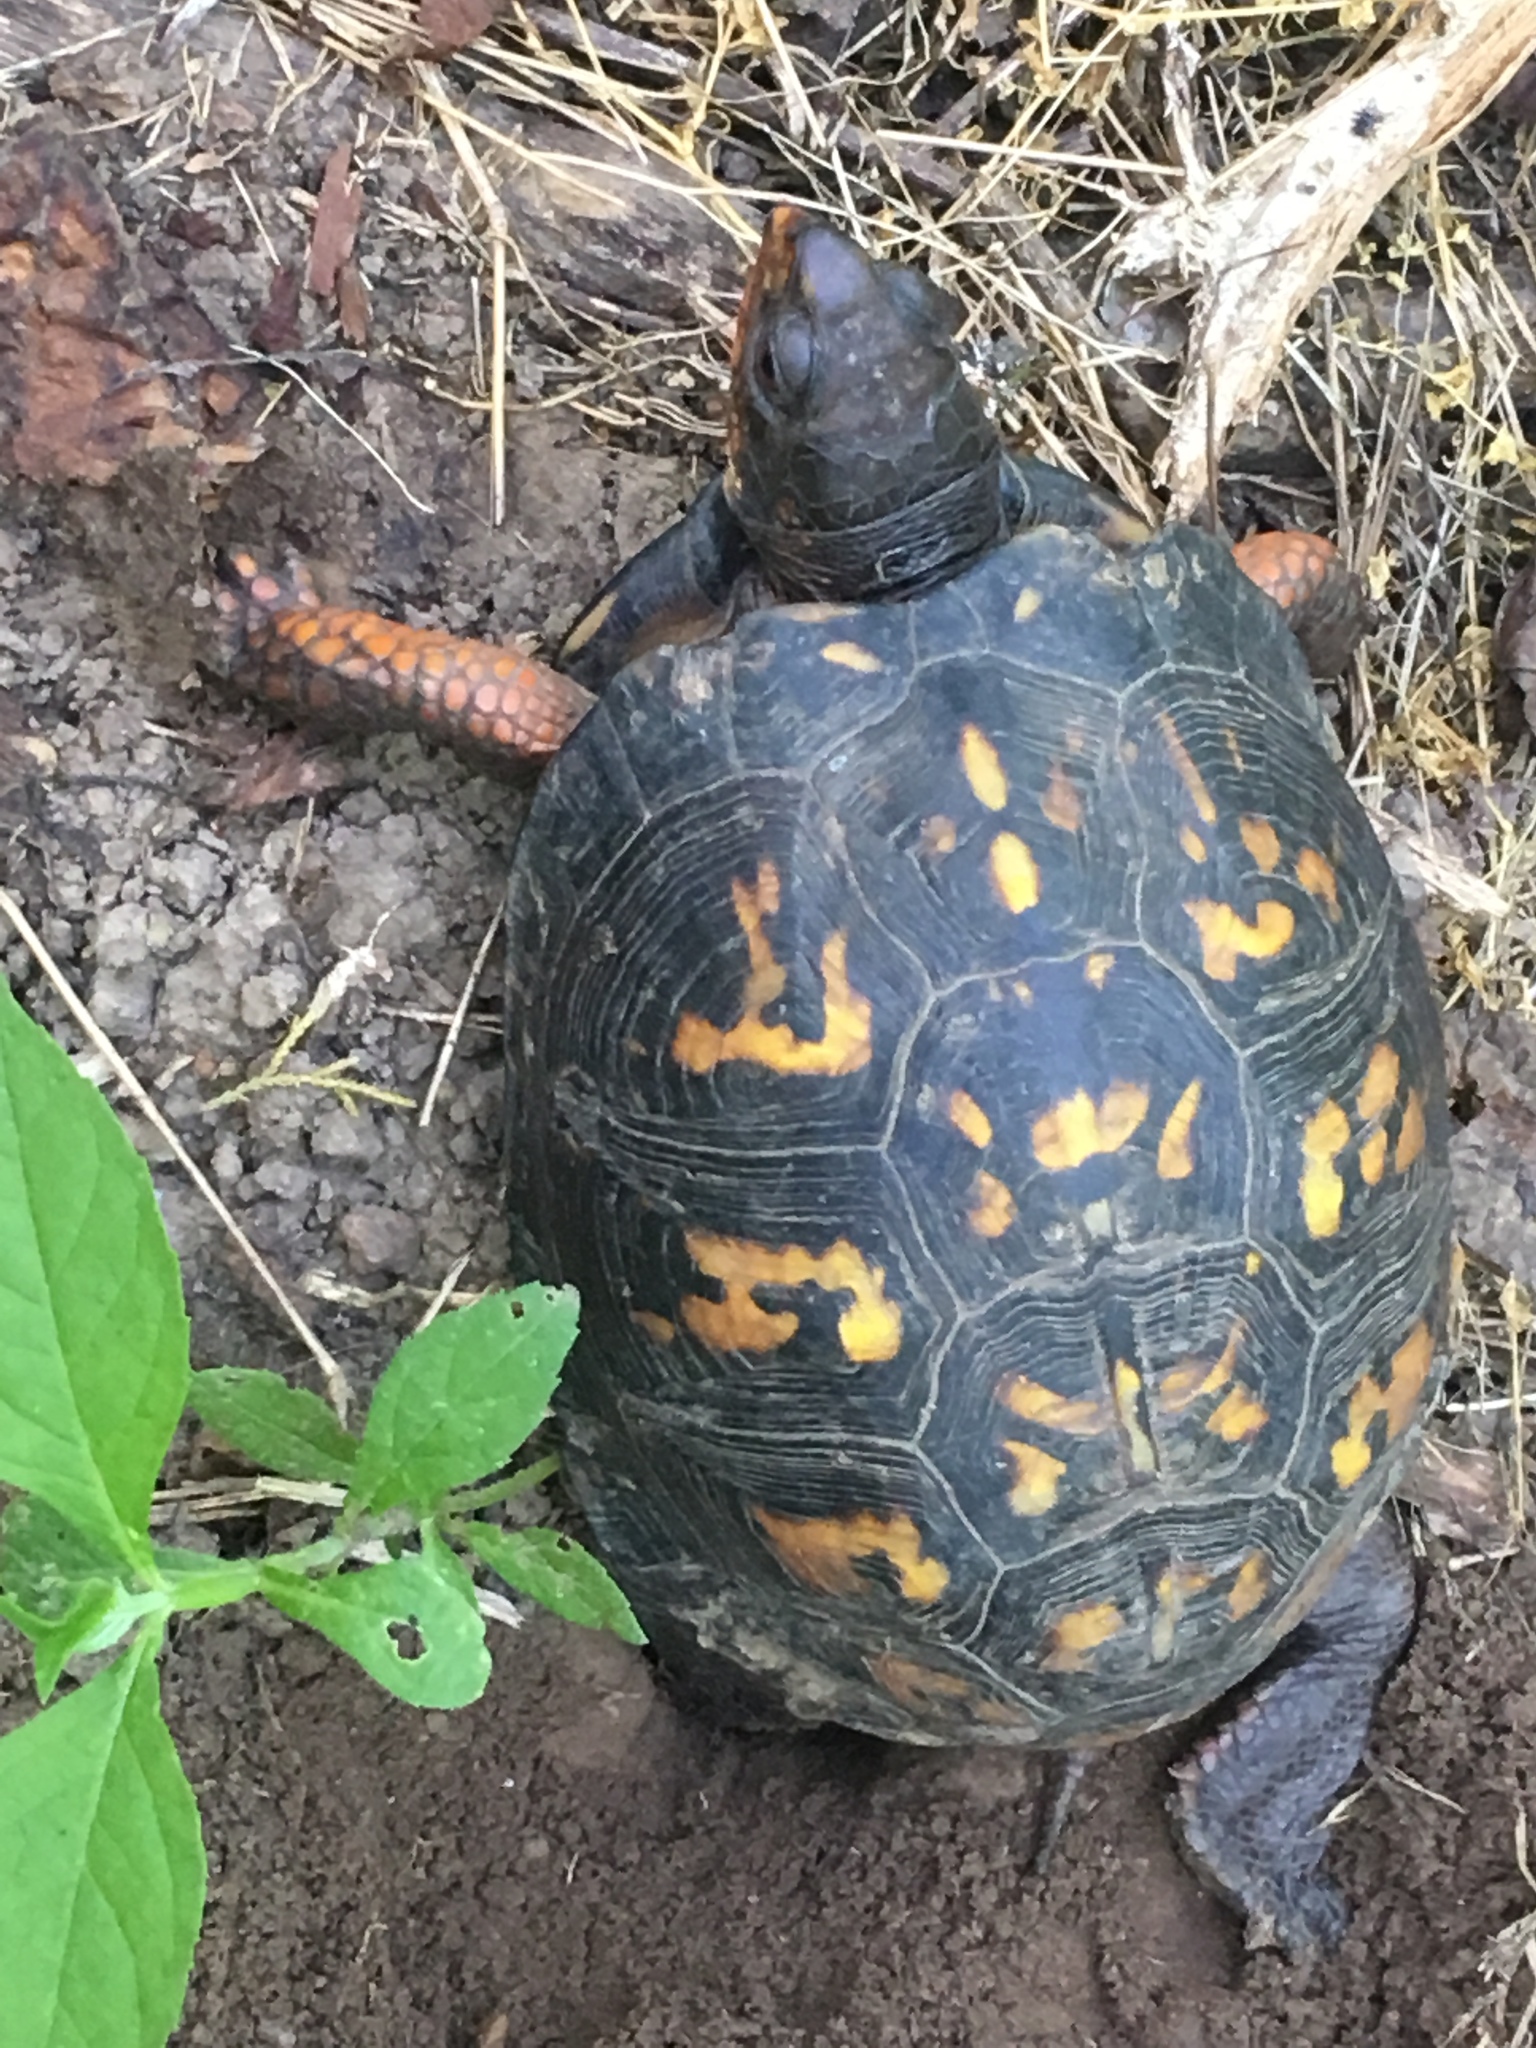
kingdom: Animalia
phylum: Chordata
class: Testudines
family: Emydidae
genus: Terrapene
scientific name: Terrapene carolina
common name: Common box turtle
